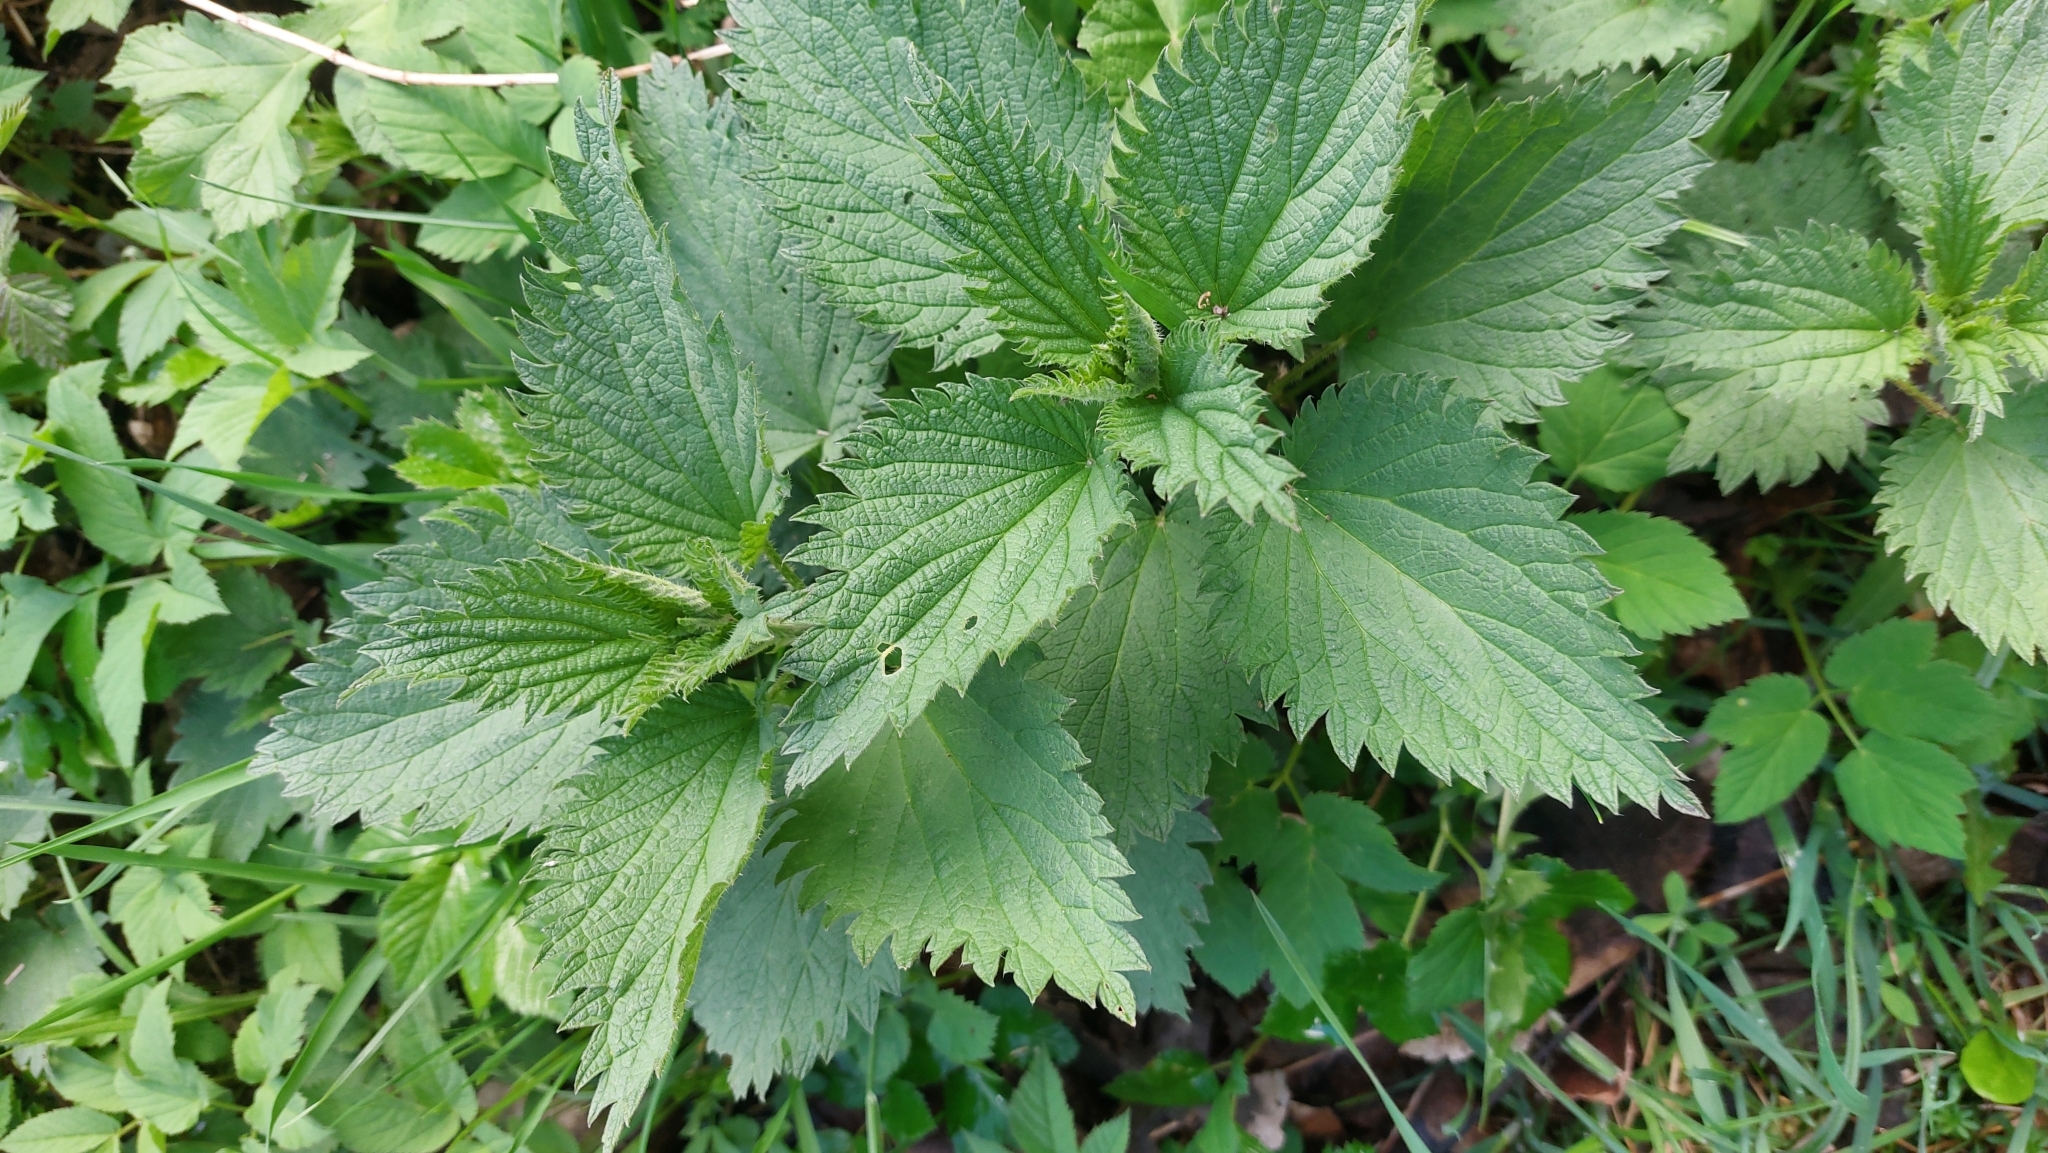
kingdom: Plantae
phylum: Tracheophyta
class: Magnoliopsida
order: Rosales
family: Urticaceae
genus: Urtica
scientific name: Urtica dioica
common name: Common nettle
